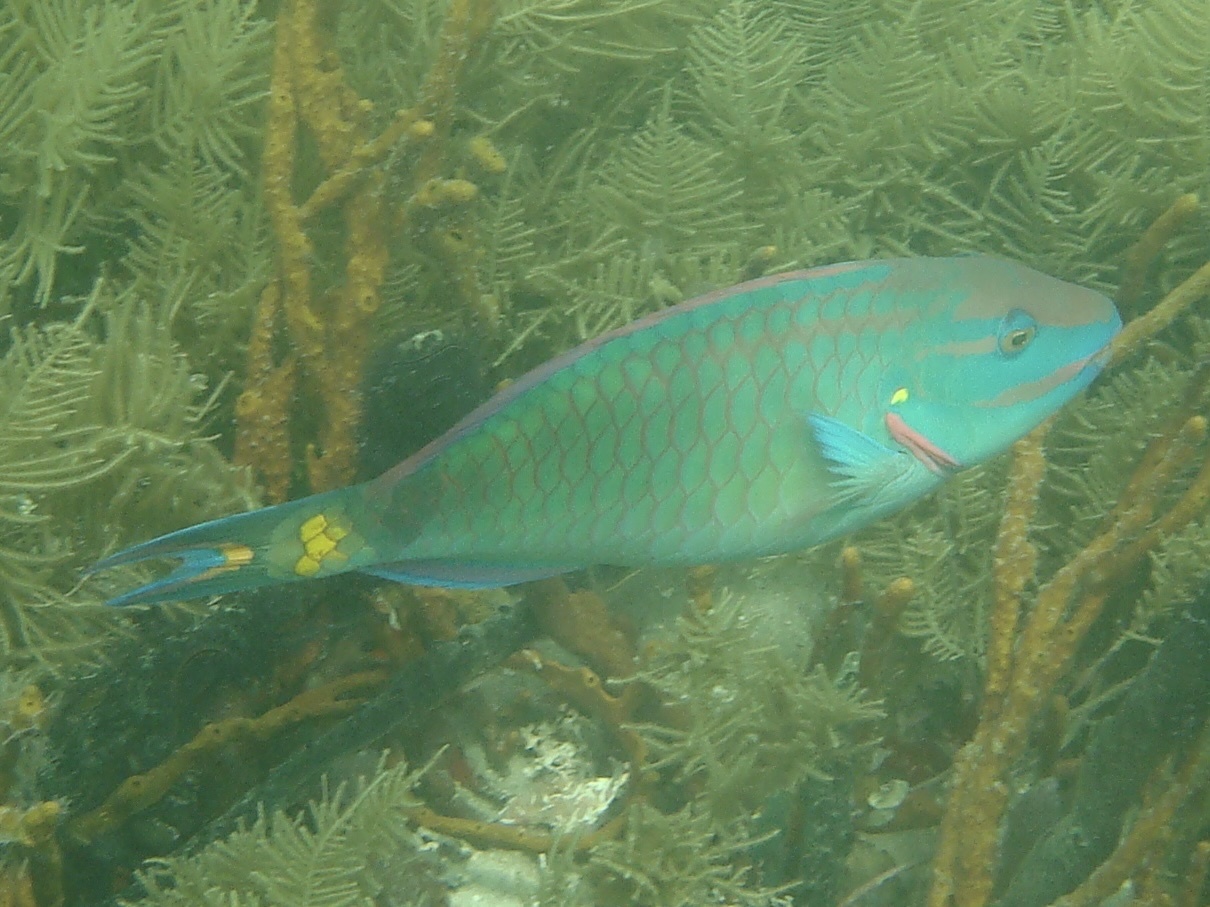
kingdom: Animalia
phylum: Chordata
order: Perciformes
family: Scaridae
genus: Sparisoma
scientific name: Sparisoma viride
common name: Stoplight parrotfish
